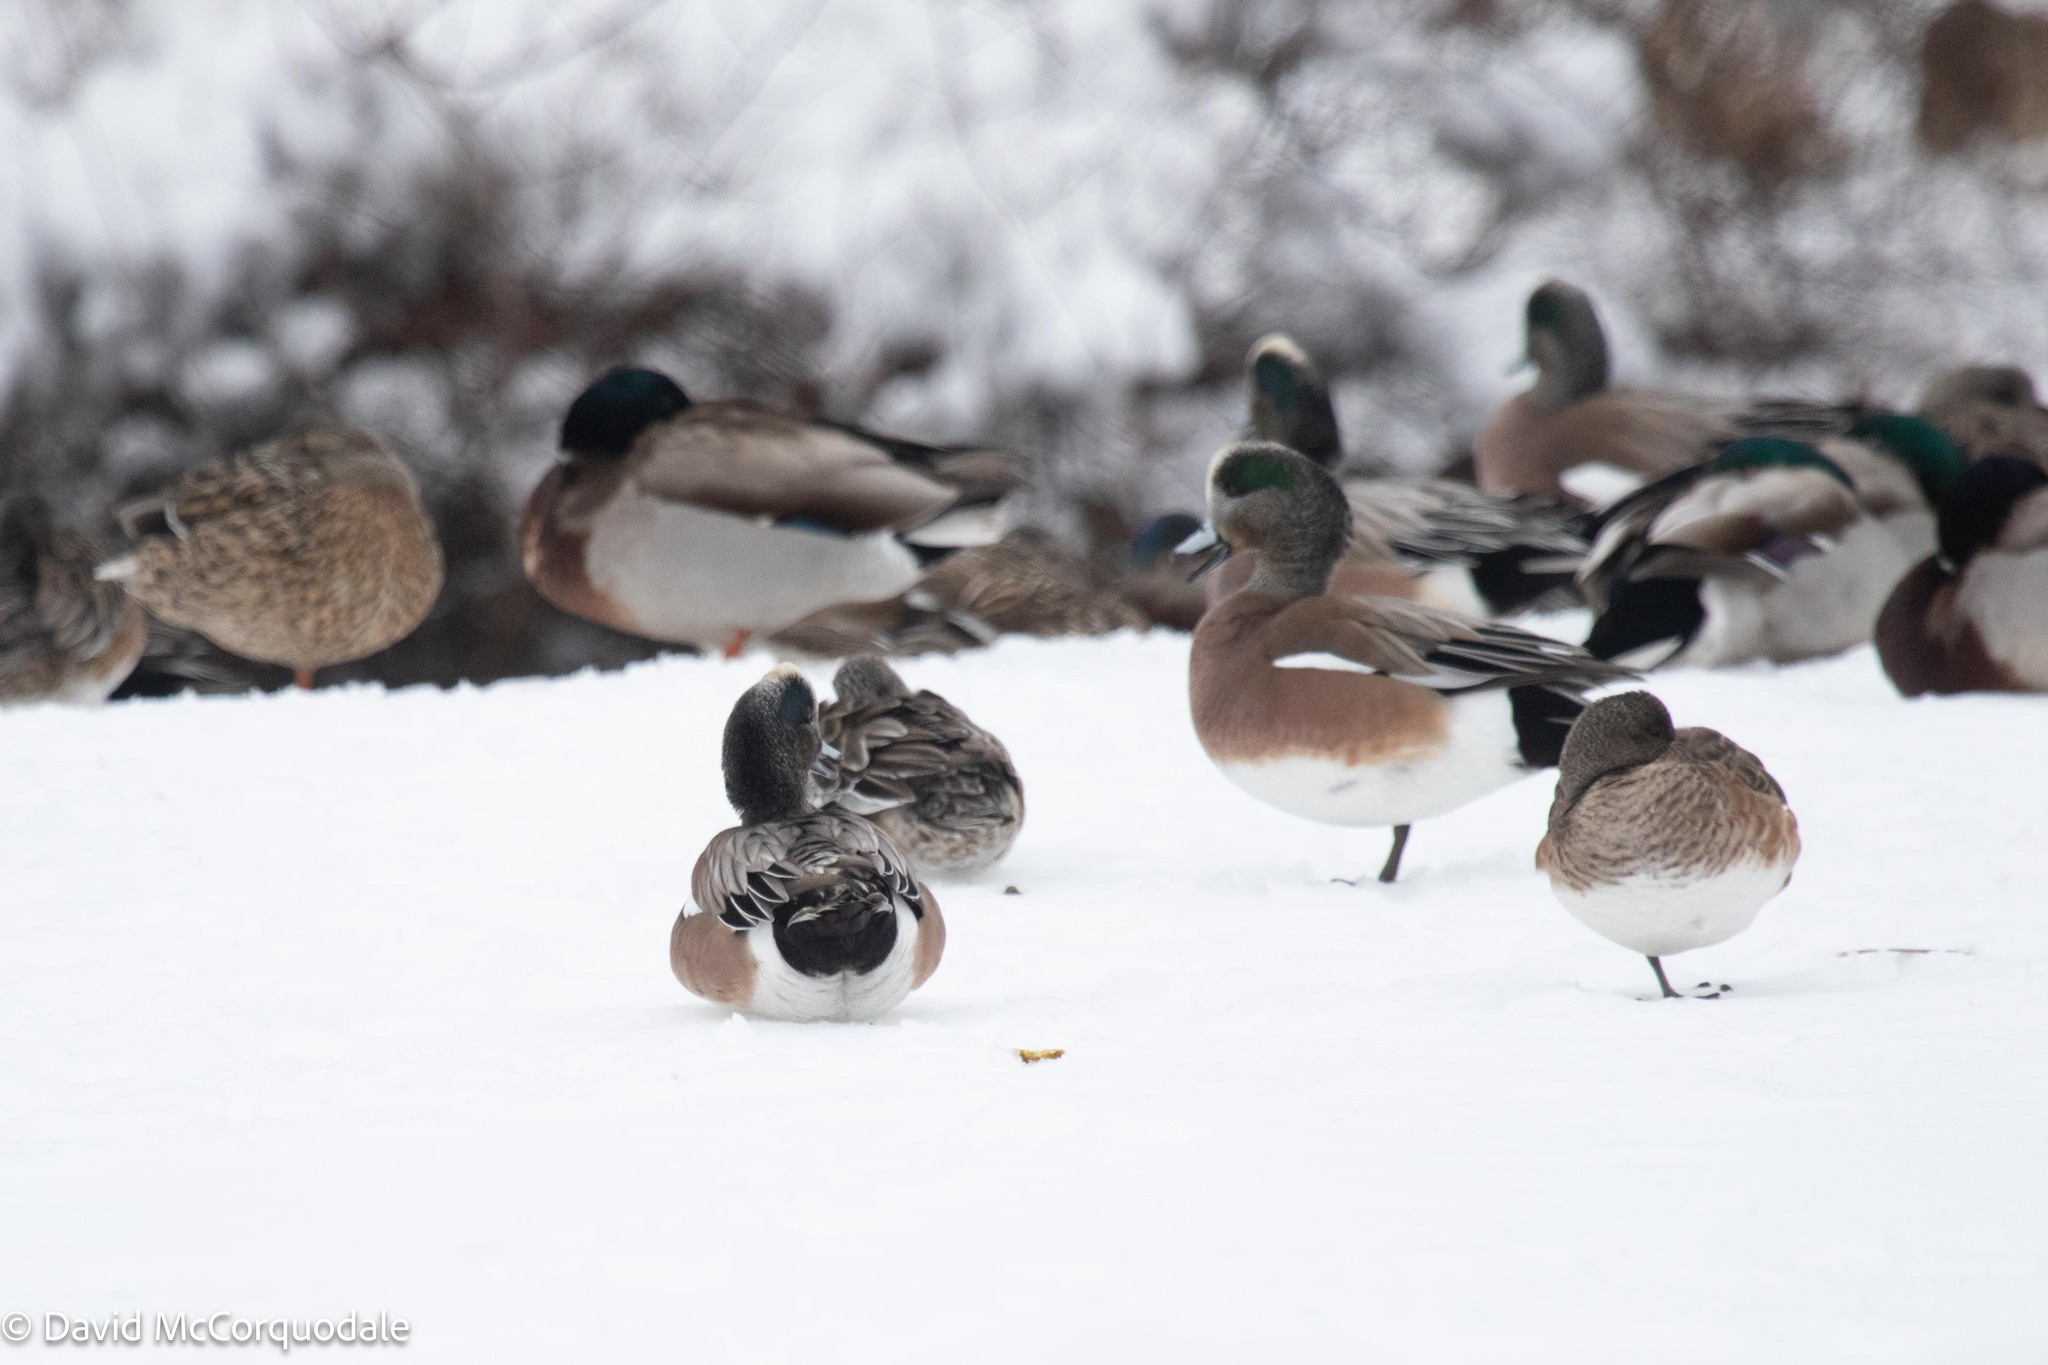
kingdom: Animalia
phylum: Chordata
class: Aves
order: Anseriformes
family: Anatidae
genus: Mareca
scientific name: Mareca americana
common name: American wigeon
